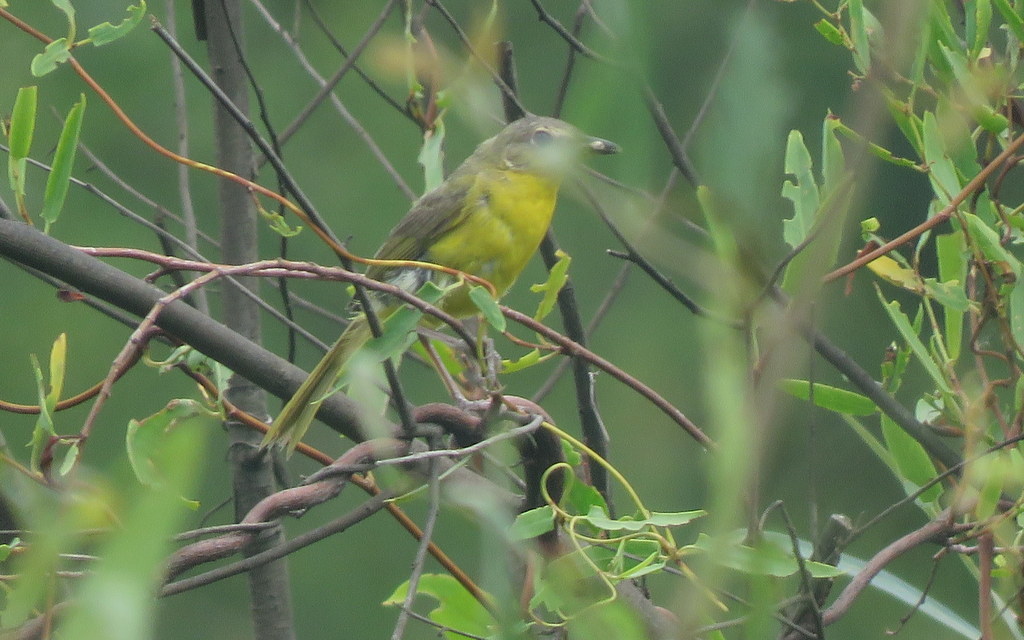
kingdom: Animalia
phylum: Chordata
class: Aves
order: Passeriformes
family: Parulidae
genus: Geothlypis
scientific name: Geothlypis velata
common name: Southern yellowthroat
